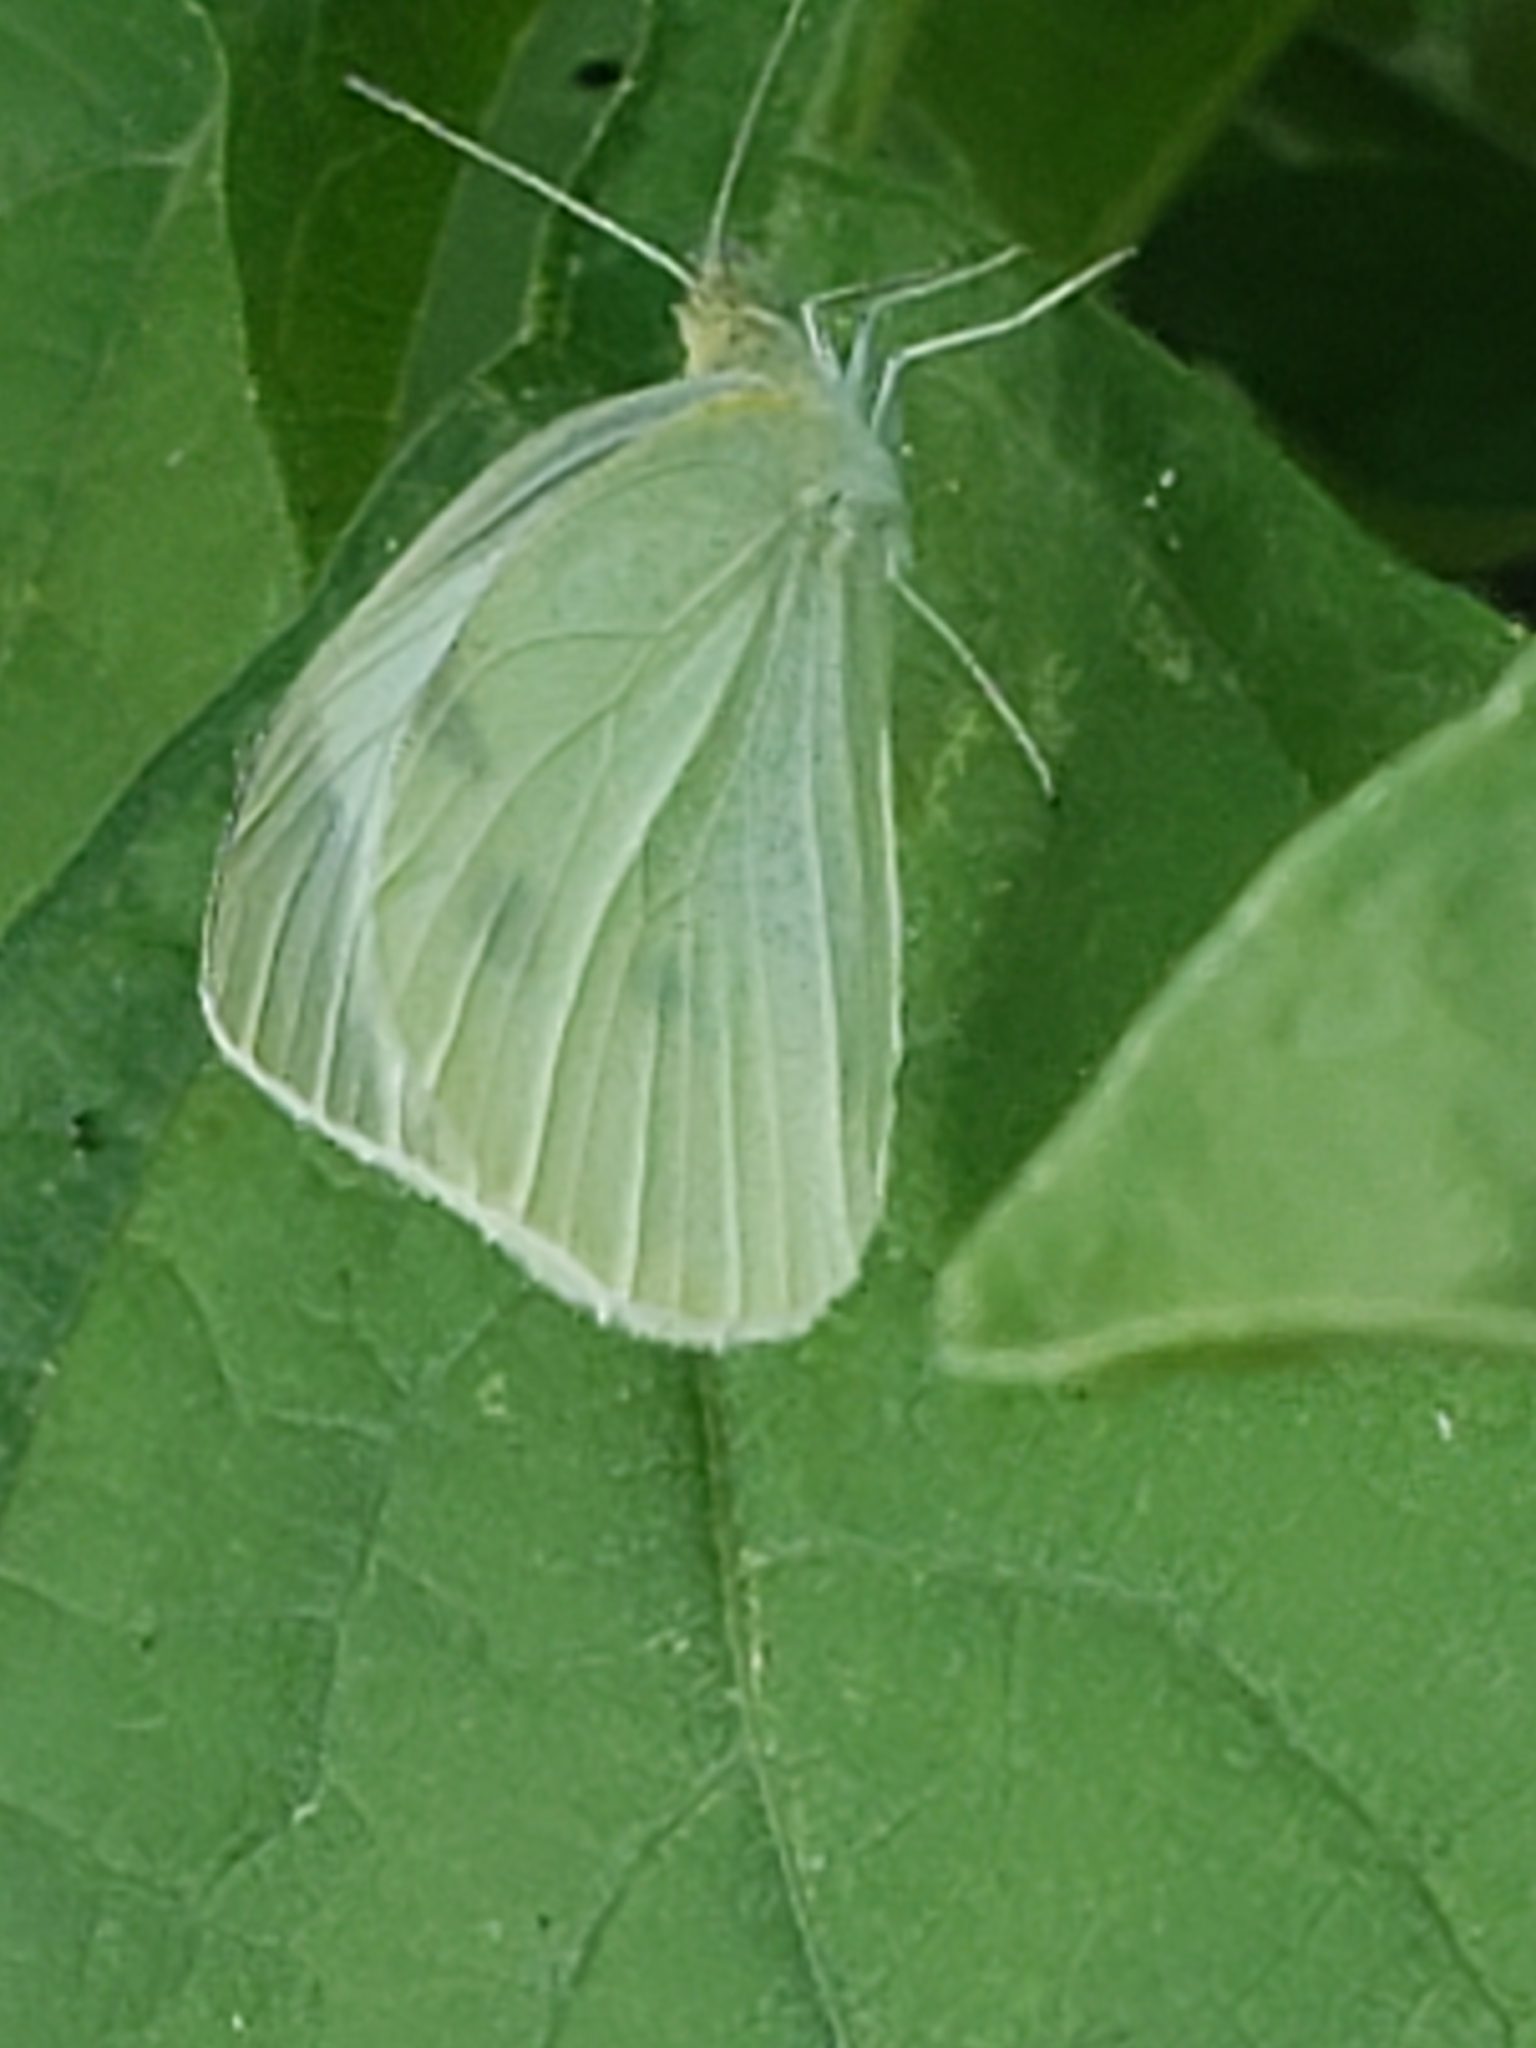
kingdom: Animalia
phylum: Arthropoda
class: Insecta
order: Lepidoptera
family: Pieridae
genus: Pieris
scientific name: Pieris rapae
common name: Small white
